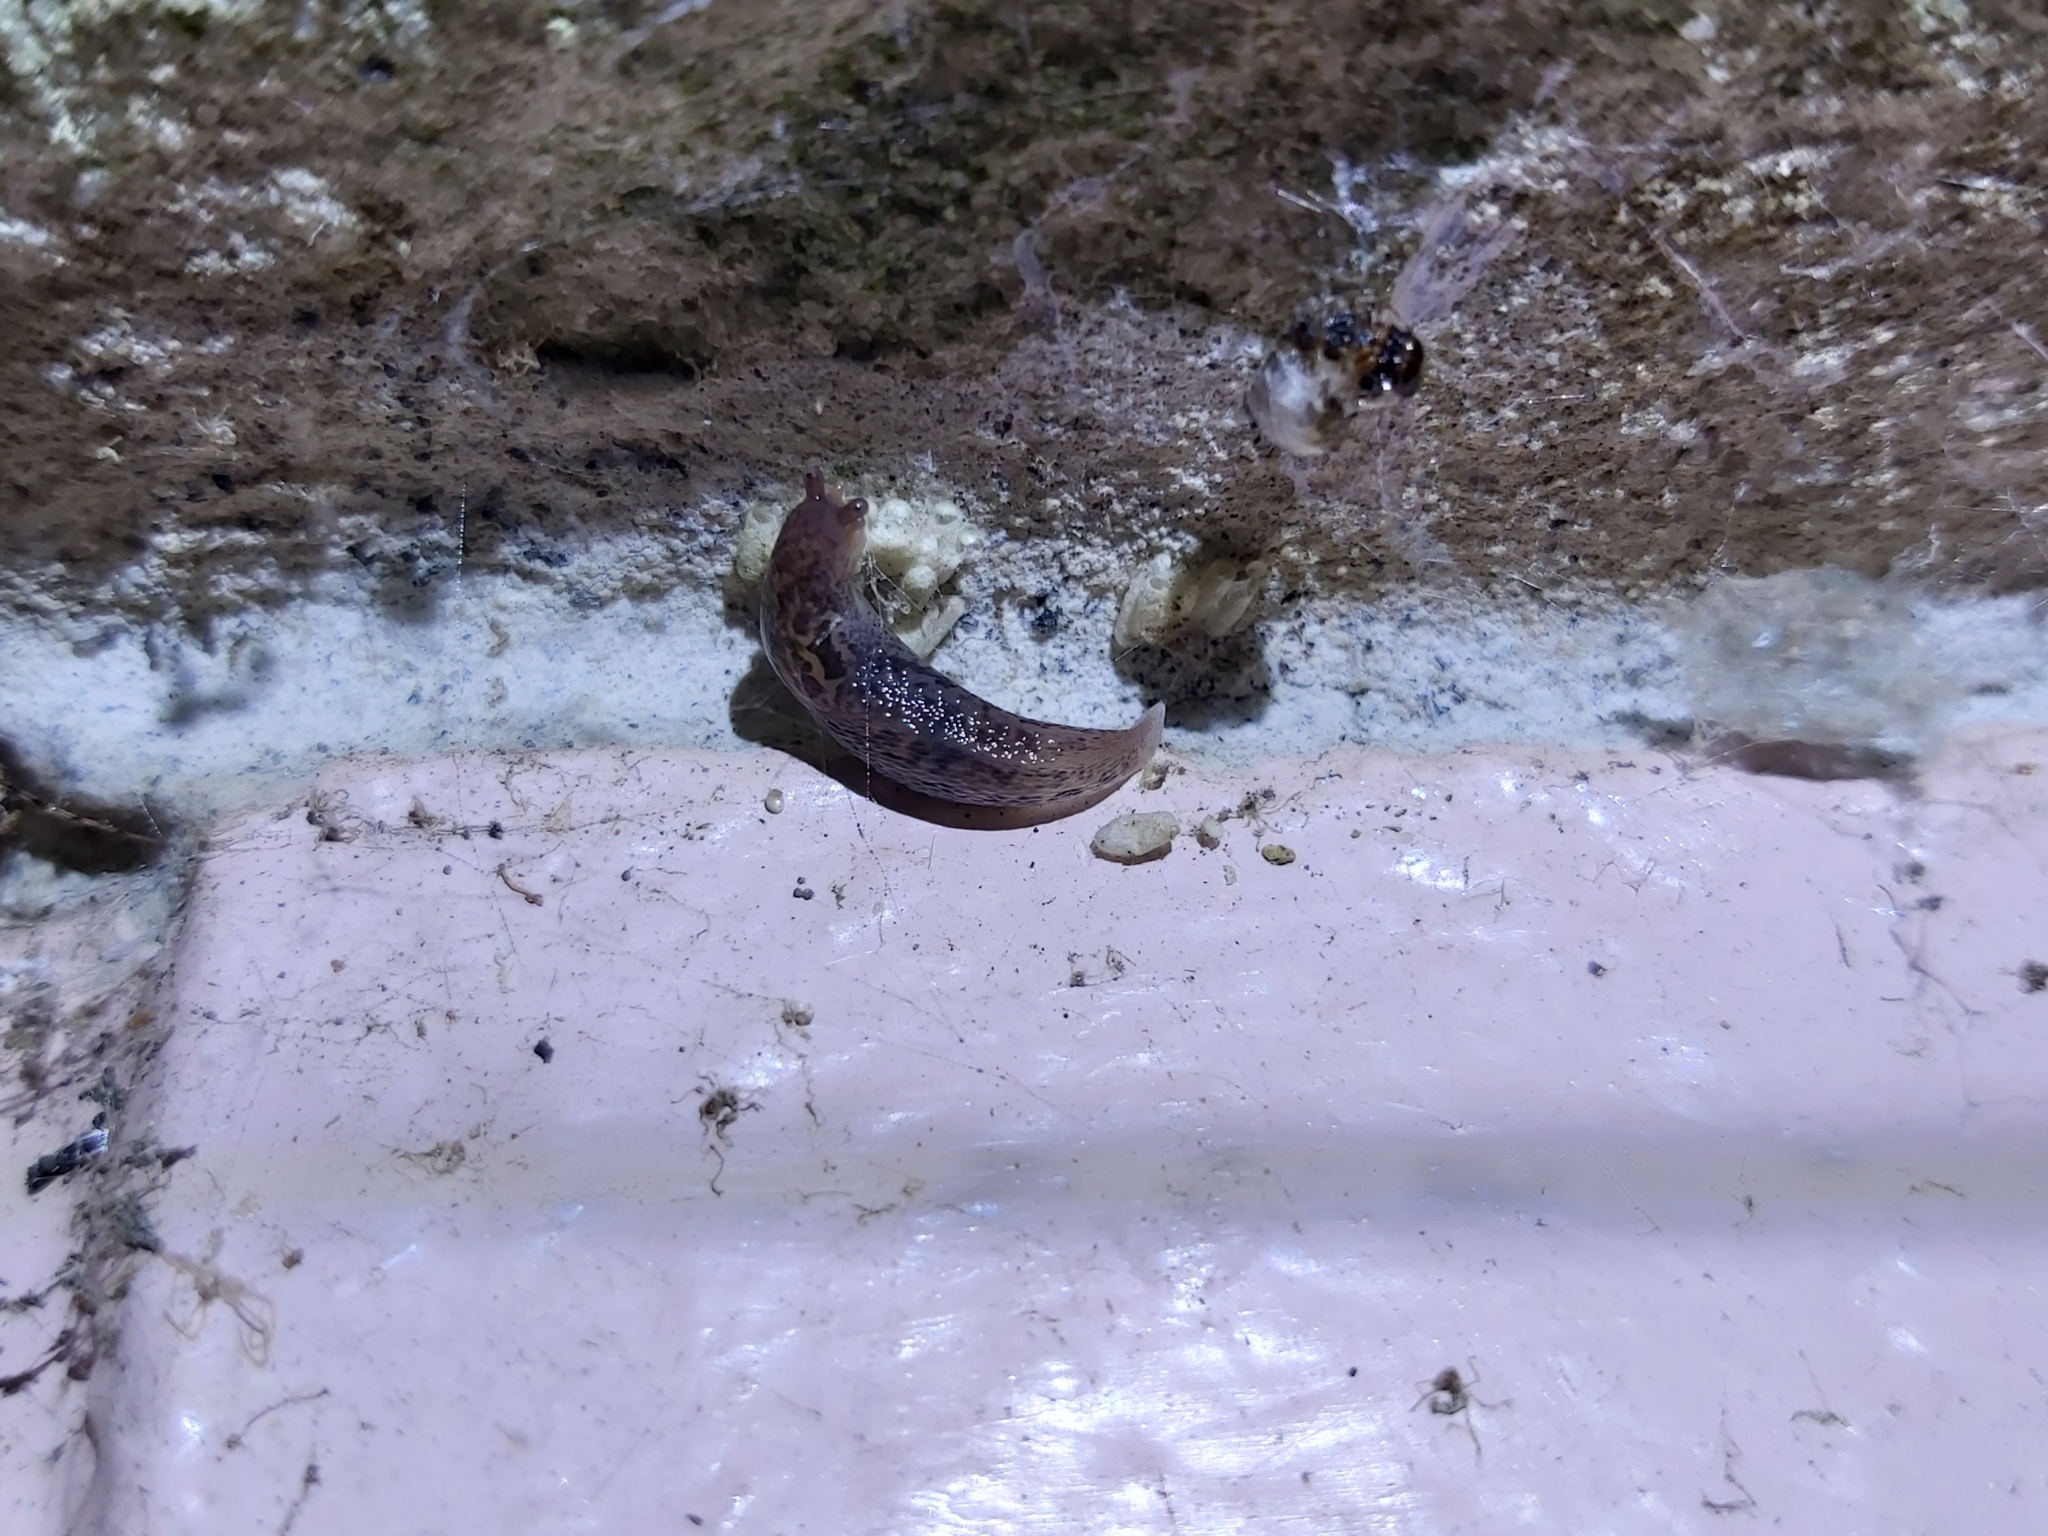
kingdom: Animalia
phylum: Mollusca
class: Gastropoda
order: Stylommatophora
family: Limacidae
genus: Limax
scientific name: Limax maximus
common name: Great grey slug
